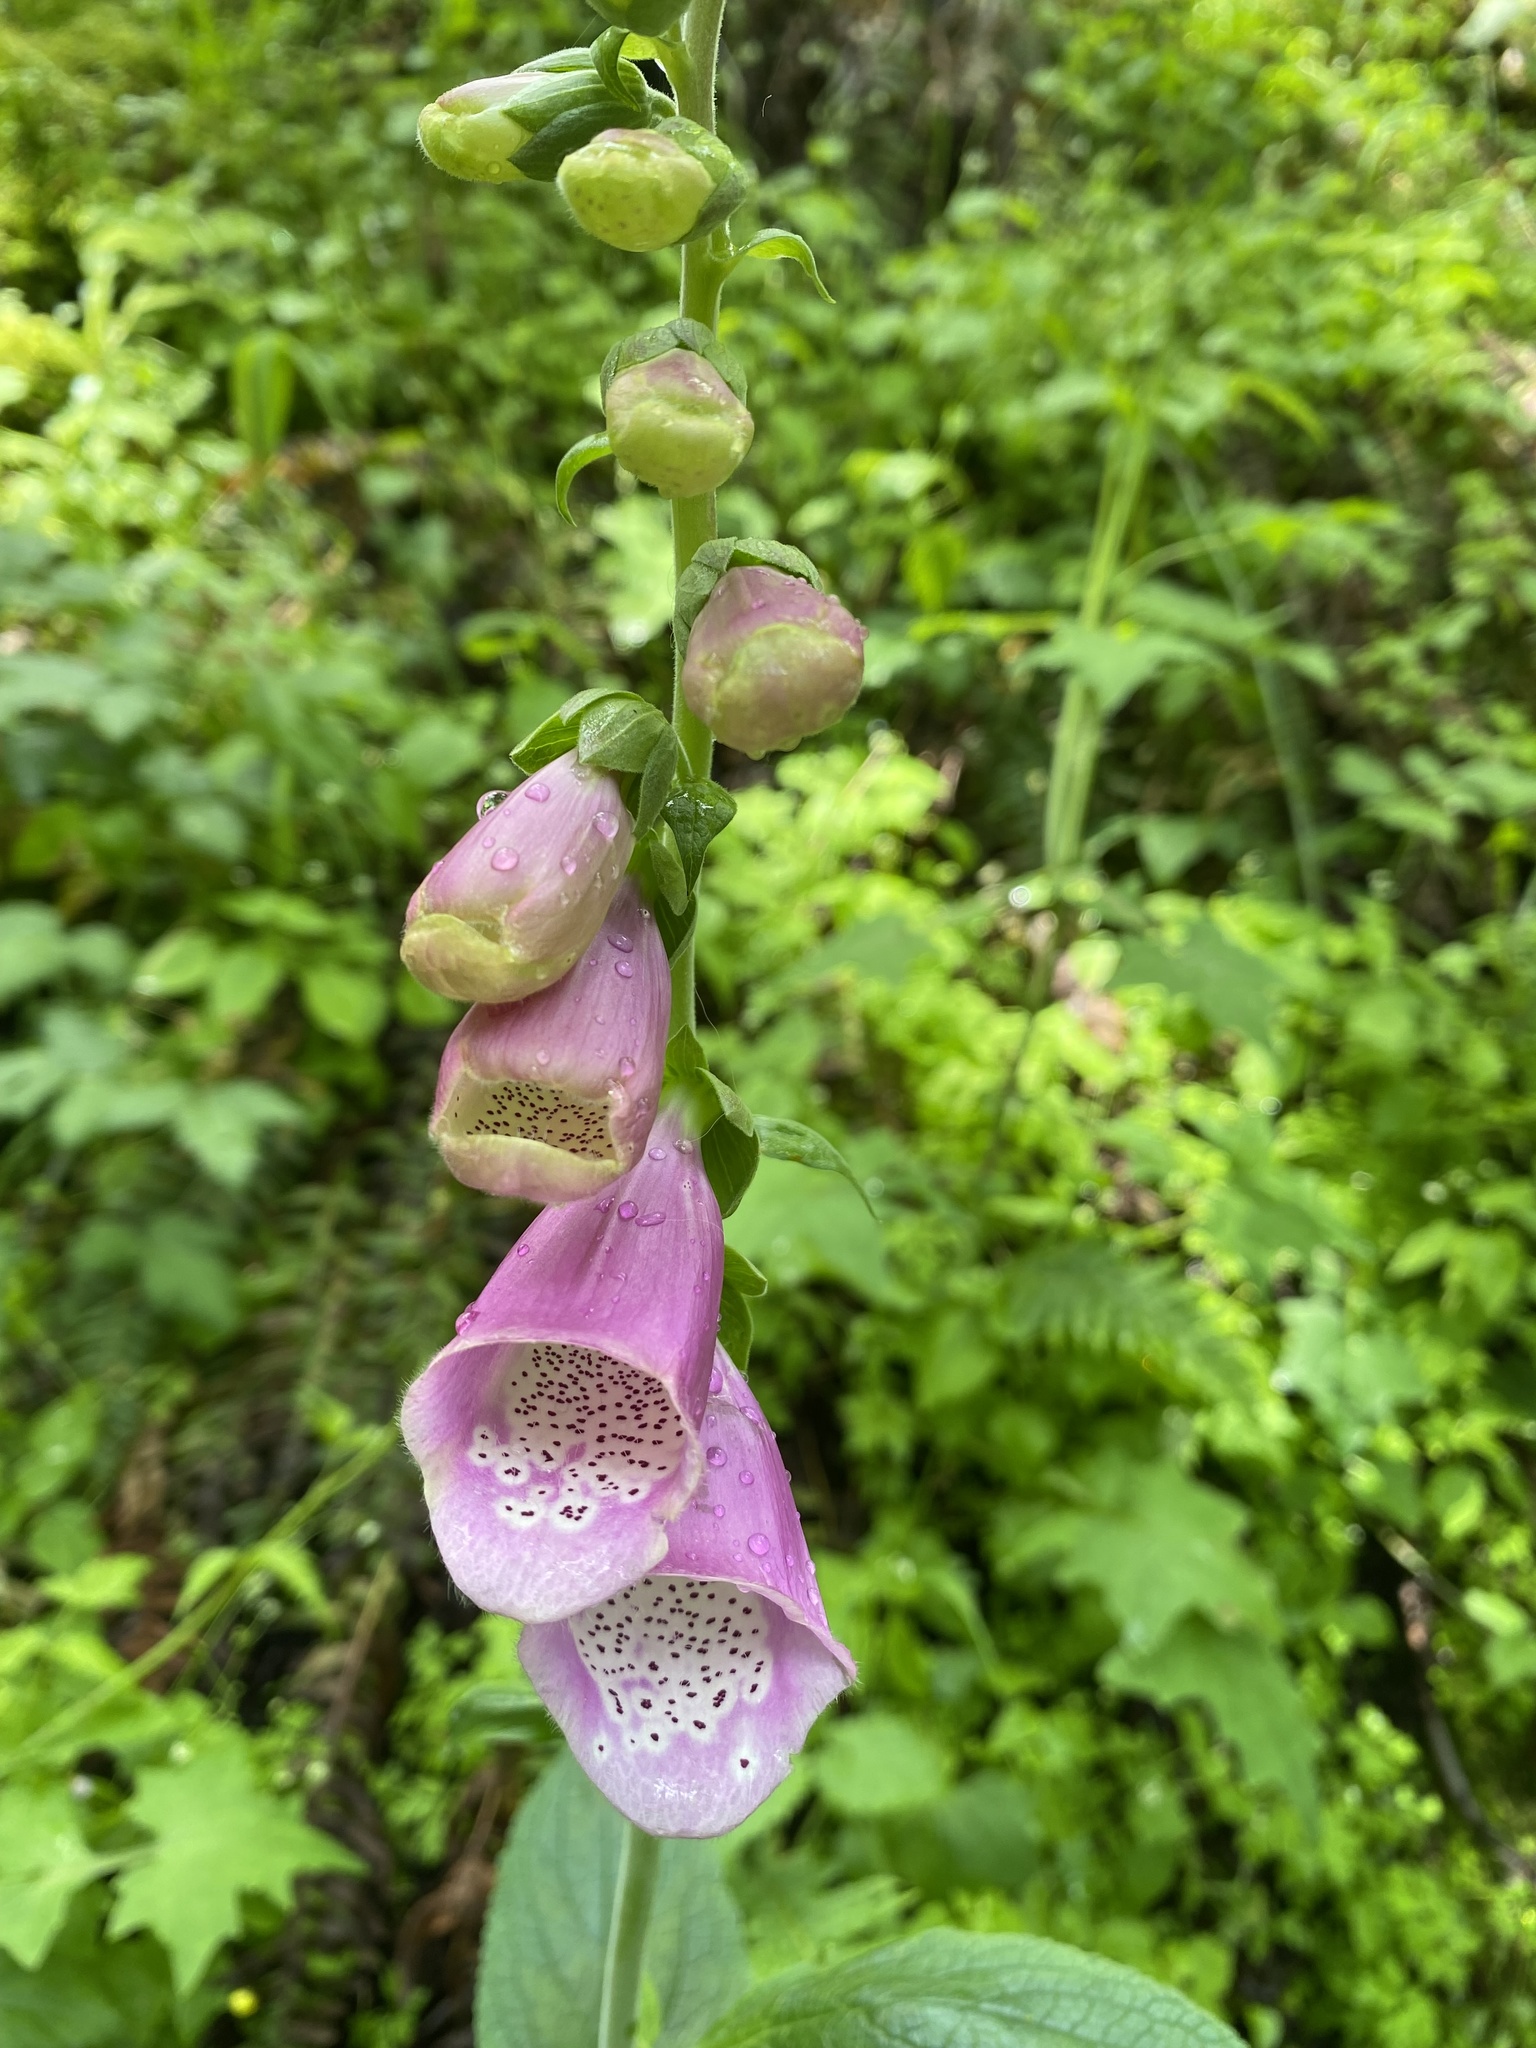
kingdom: Plantae
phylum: Tracheophyta
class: Magnoliopsida
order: Lamiales
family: Plantaginaceae
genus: Digitalis
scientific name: Digitalis purpurea
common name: Foxglove
